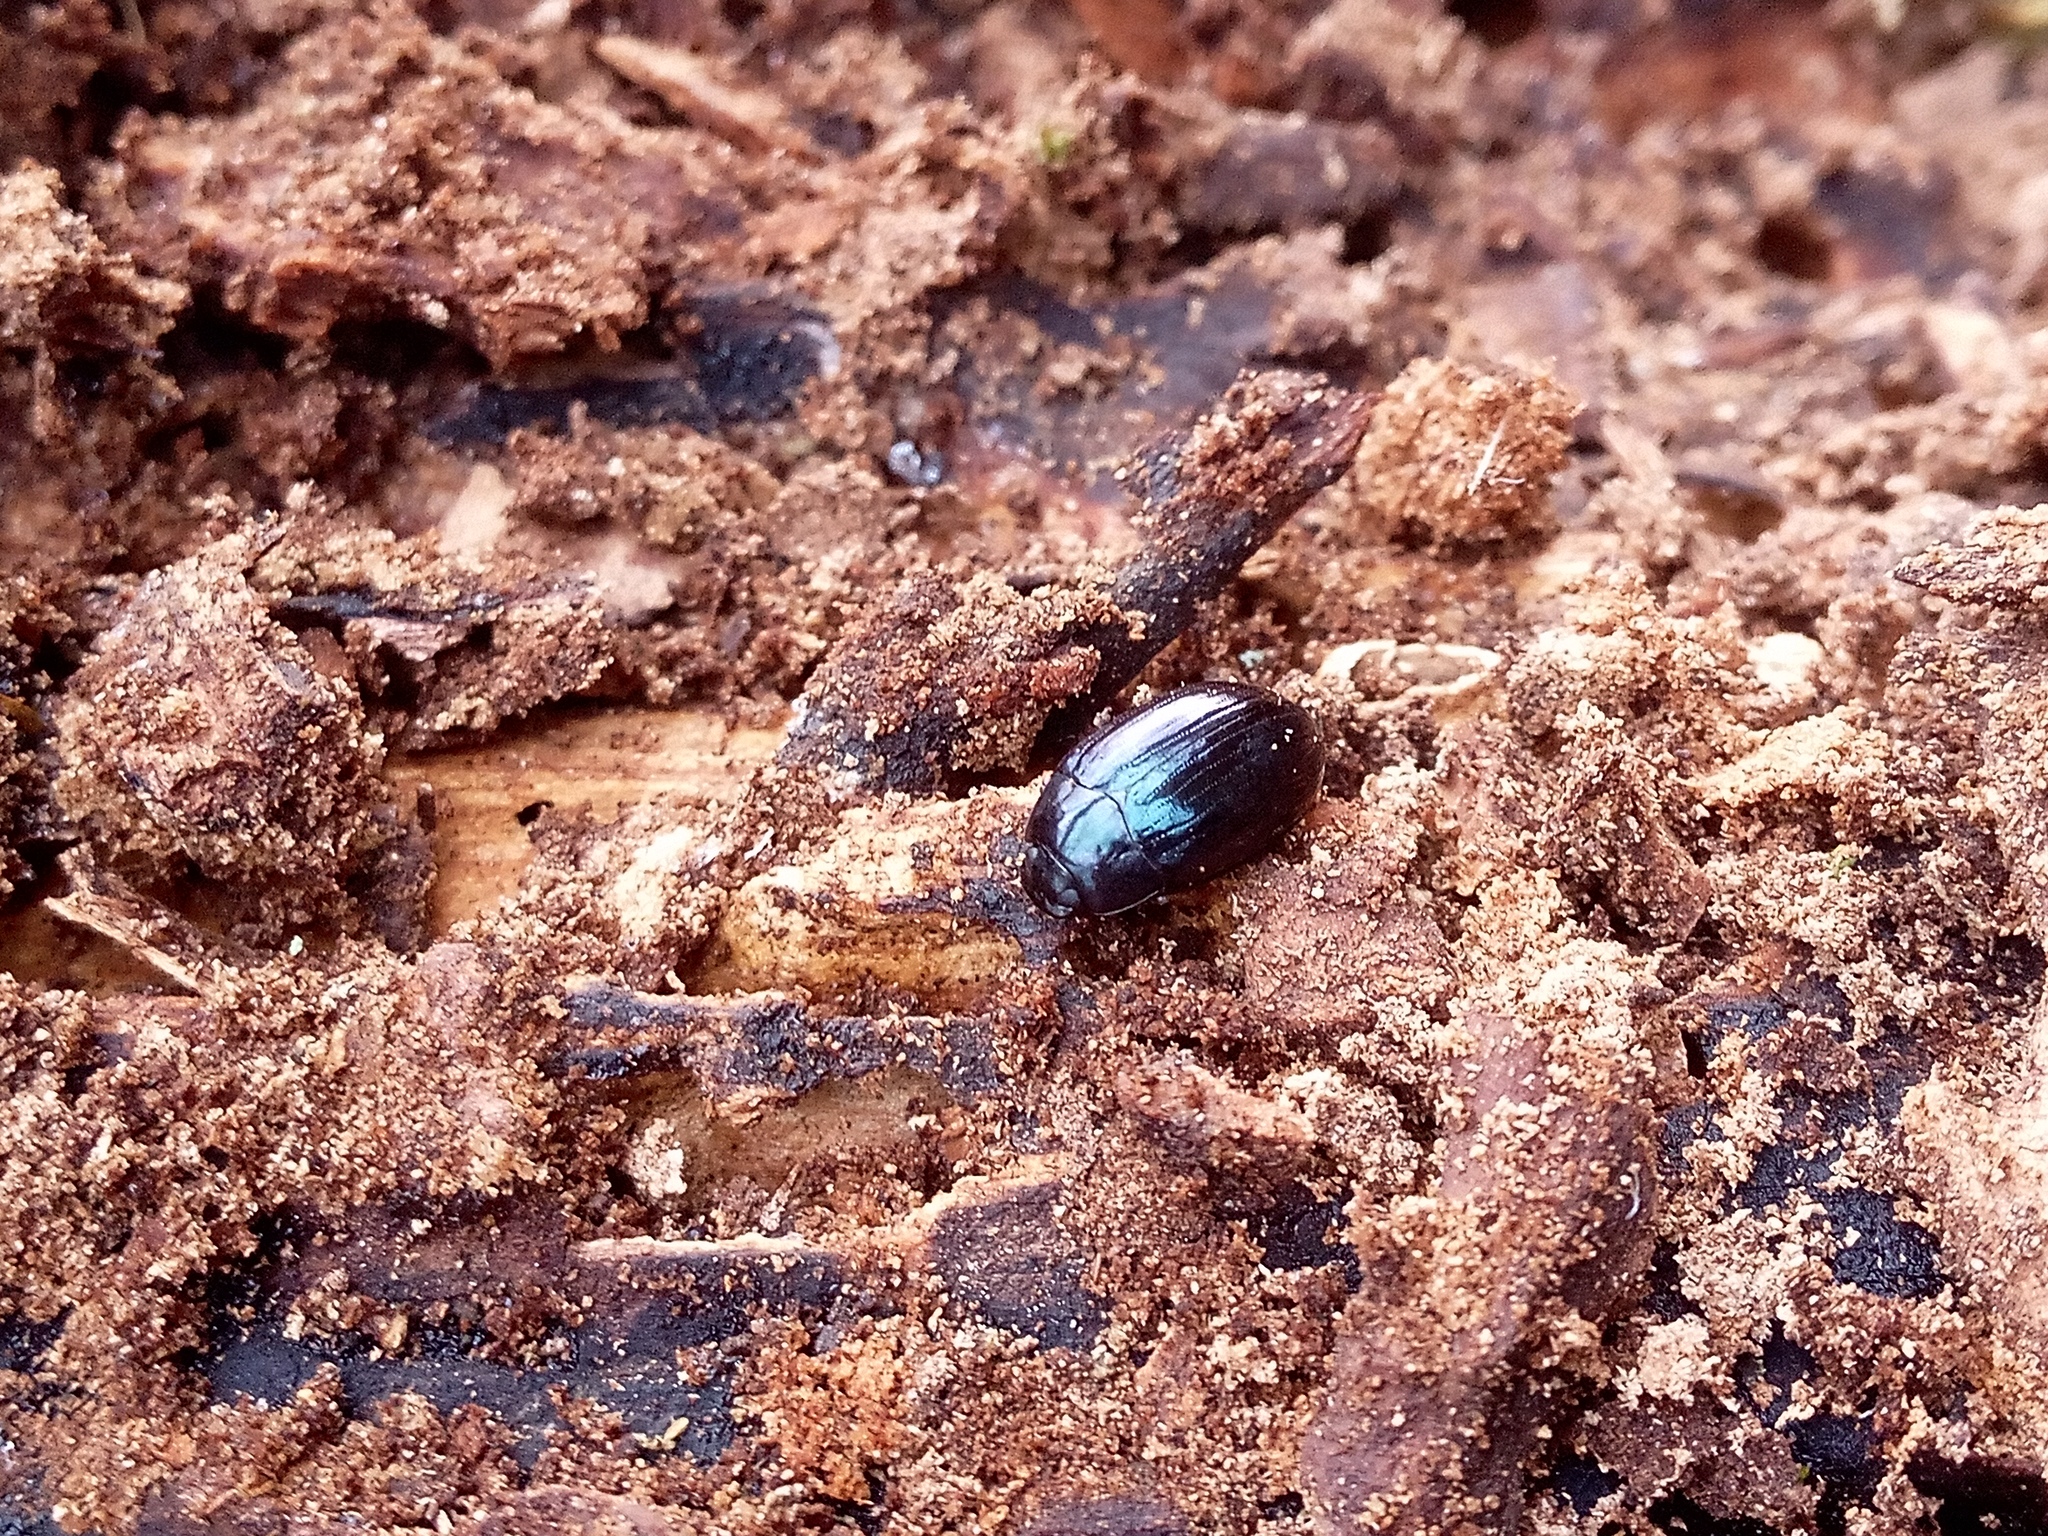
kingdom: Animalia
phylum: Arthropoda
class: Insecta
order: Coleoptera
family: Tenebrionidae
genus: Platydema
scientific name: Platydema violaceum
